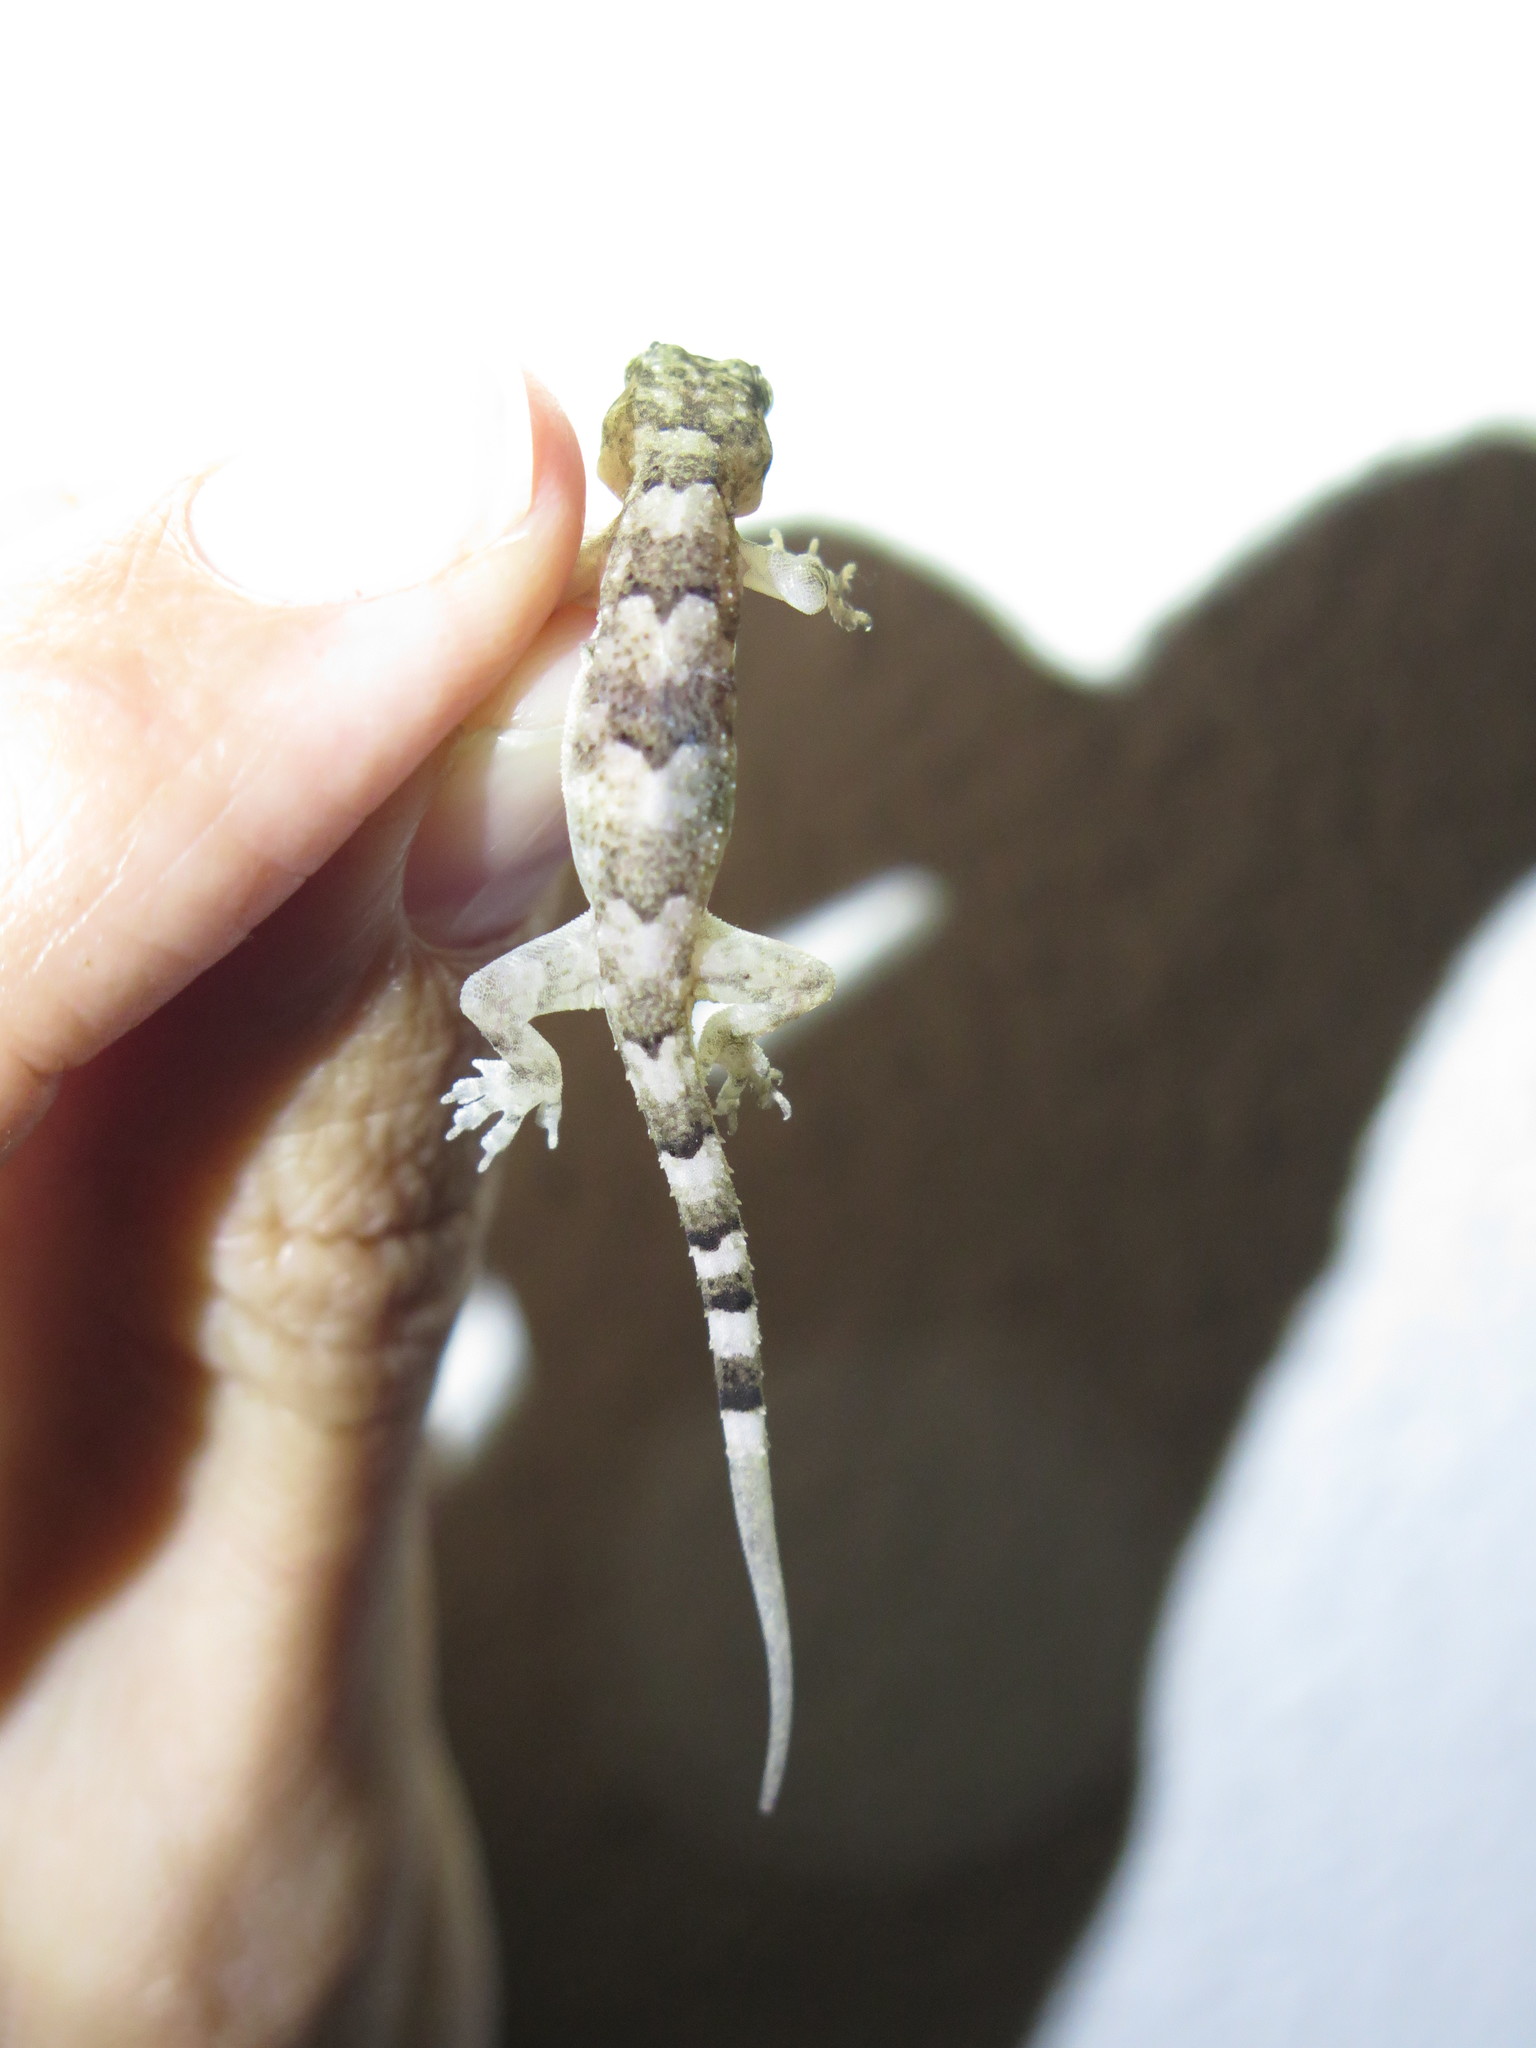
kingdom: Animalia
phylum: Chordata
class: Squamata
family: Gekkonidae
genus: Hemidactylus
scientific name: Hemidactylus mabouia
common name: House gecko
